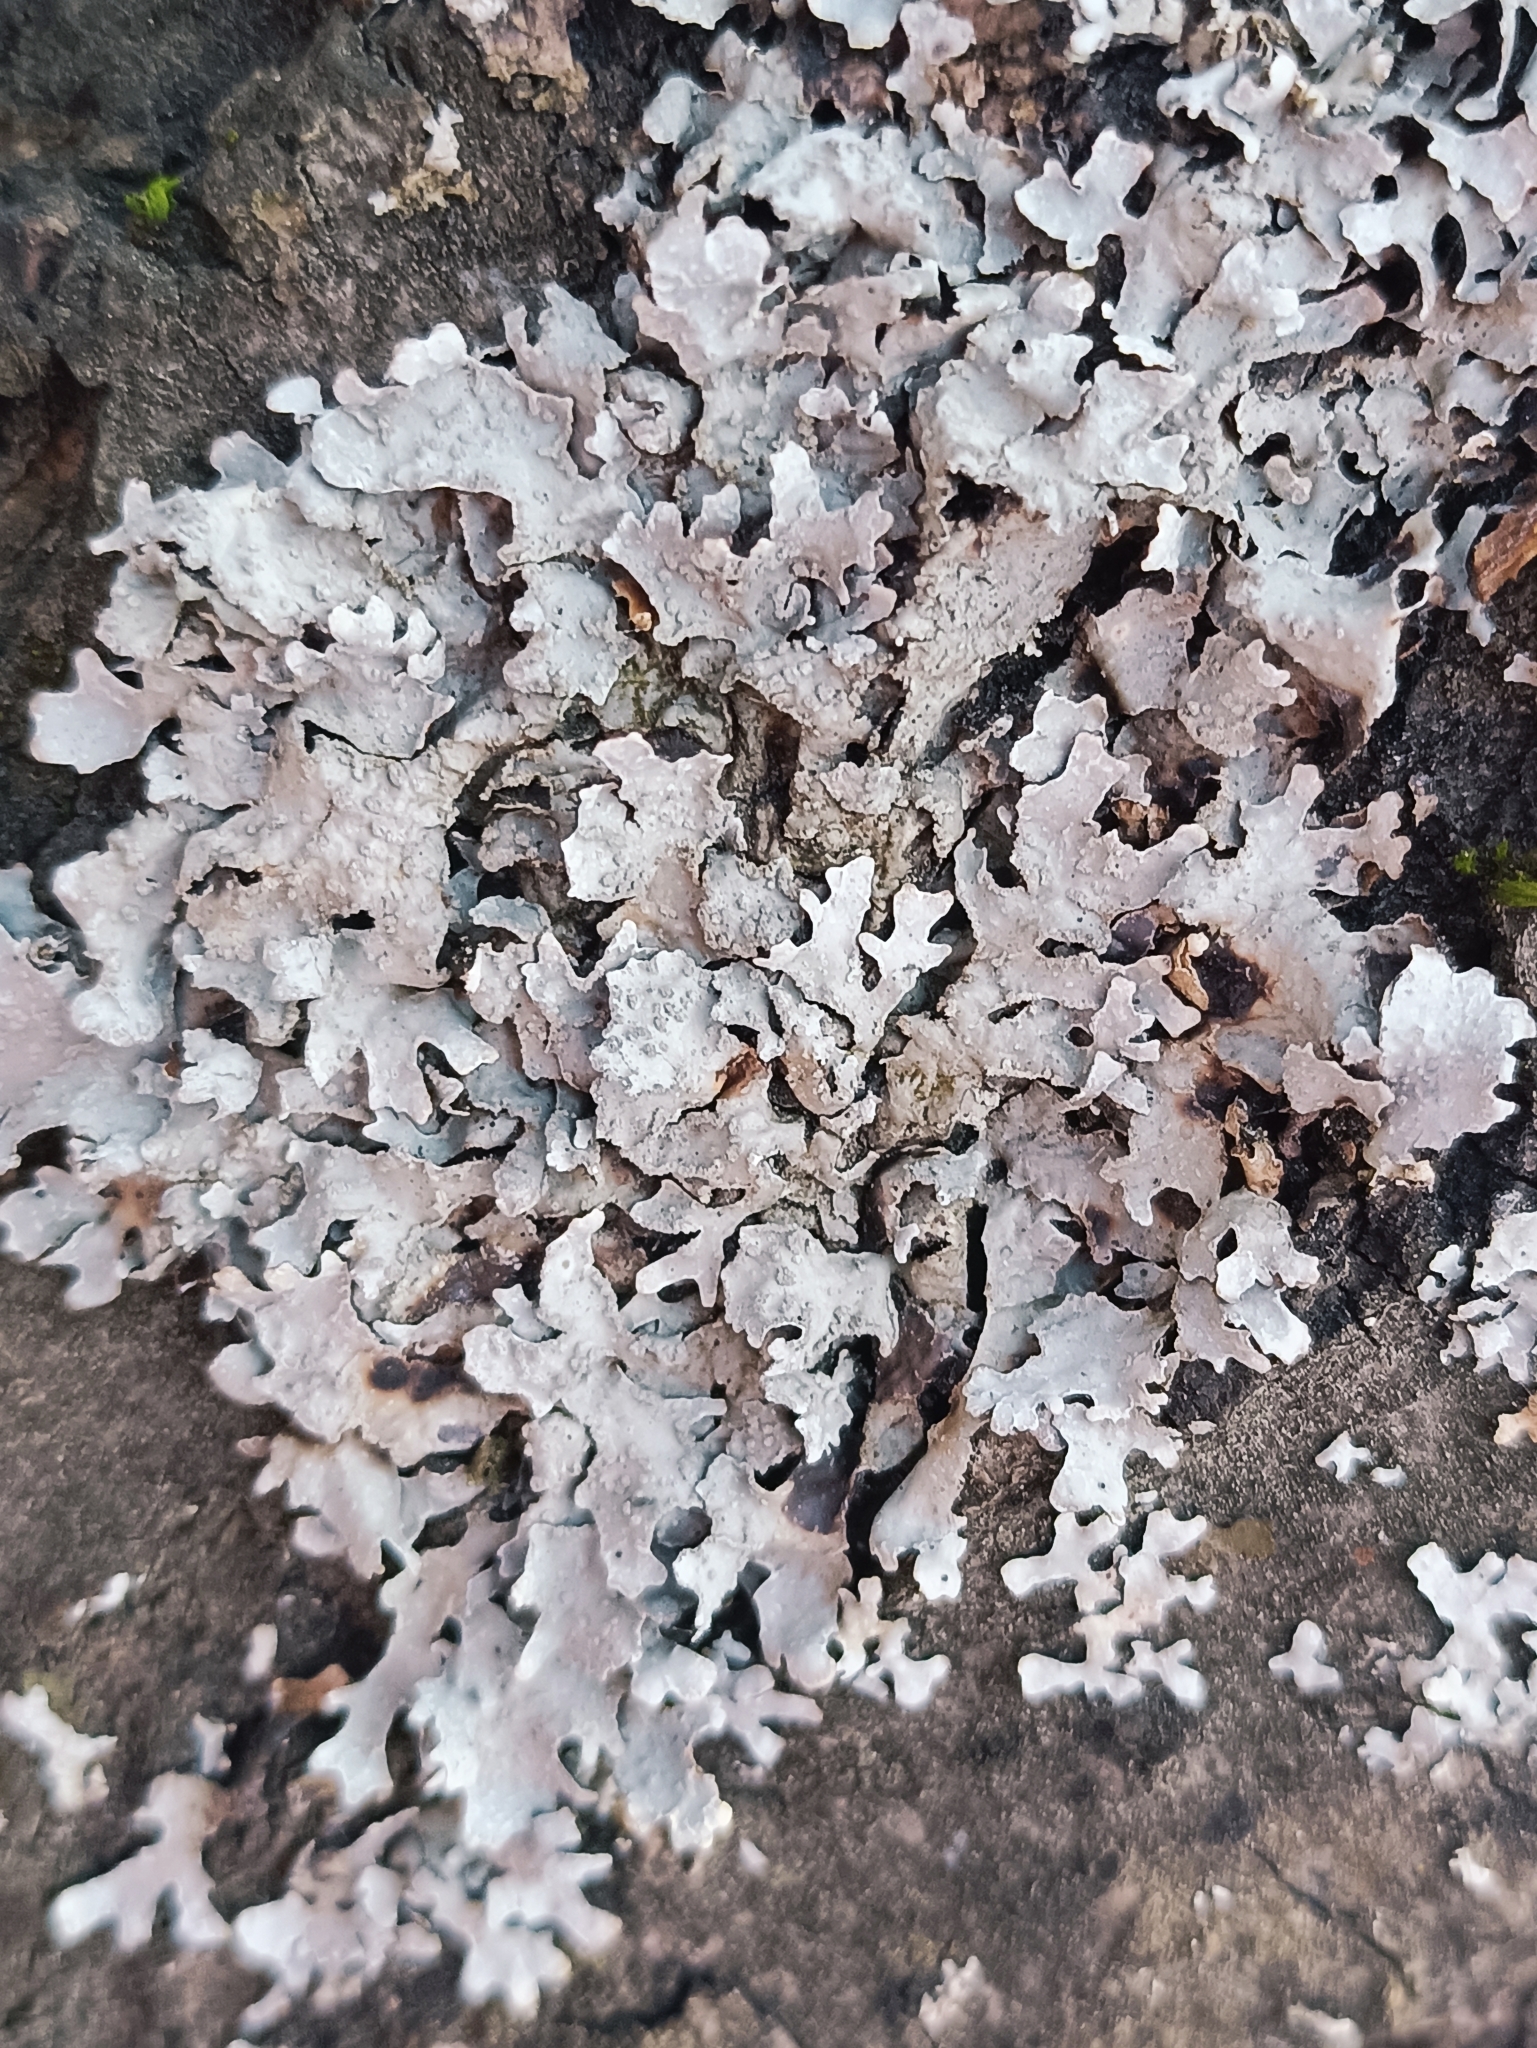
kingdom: Fungi
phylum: Ascomycota
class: Lecanoromycetes
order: Lecanorales
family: Parmeliaceae
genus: Parmelia
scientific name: Parmelia sulcata
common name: Netted shield lichen
